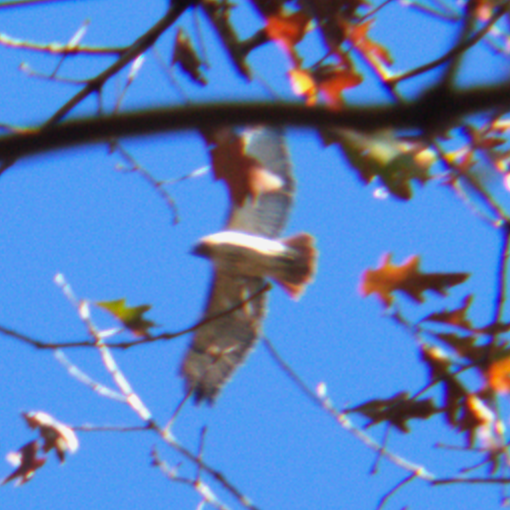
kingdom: Animalia
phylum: Chordata
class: Aves
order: Accipitriformes
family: Accipitridae
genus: Buteo
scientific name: Buteo jamaicensis
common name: Red-tailed hawk
